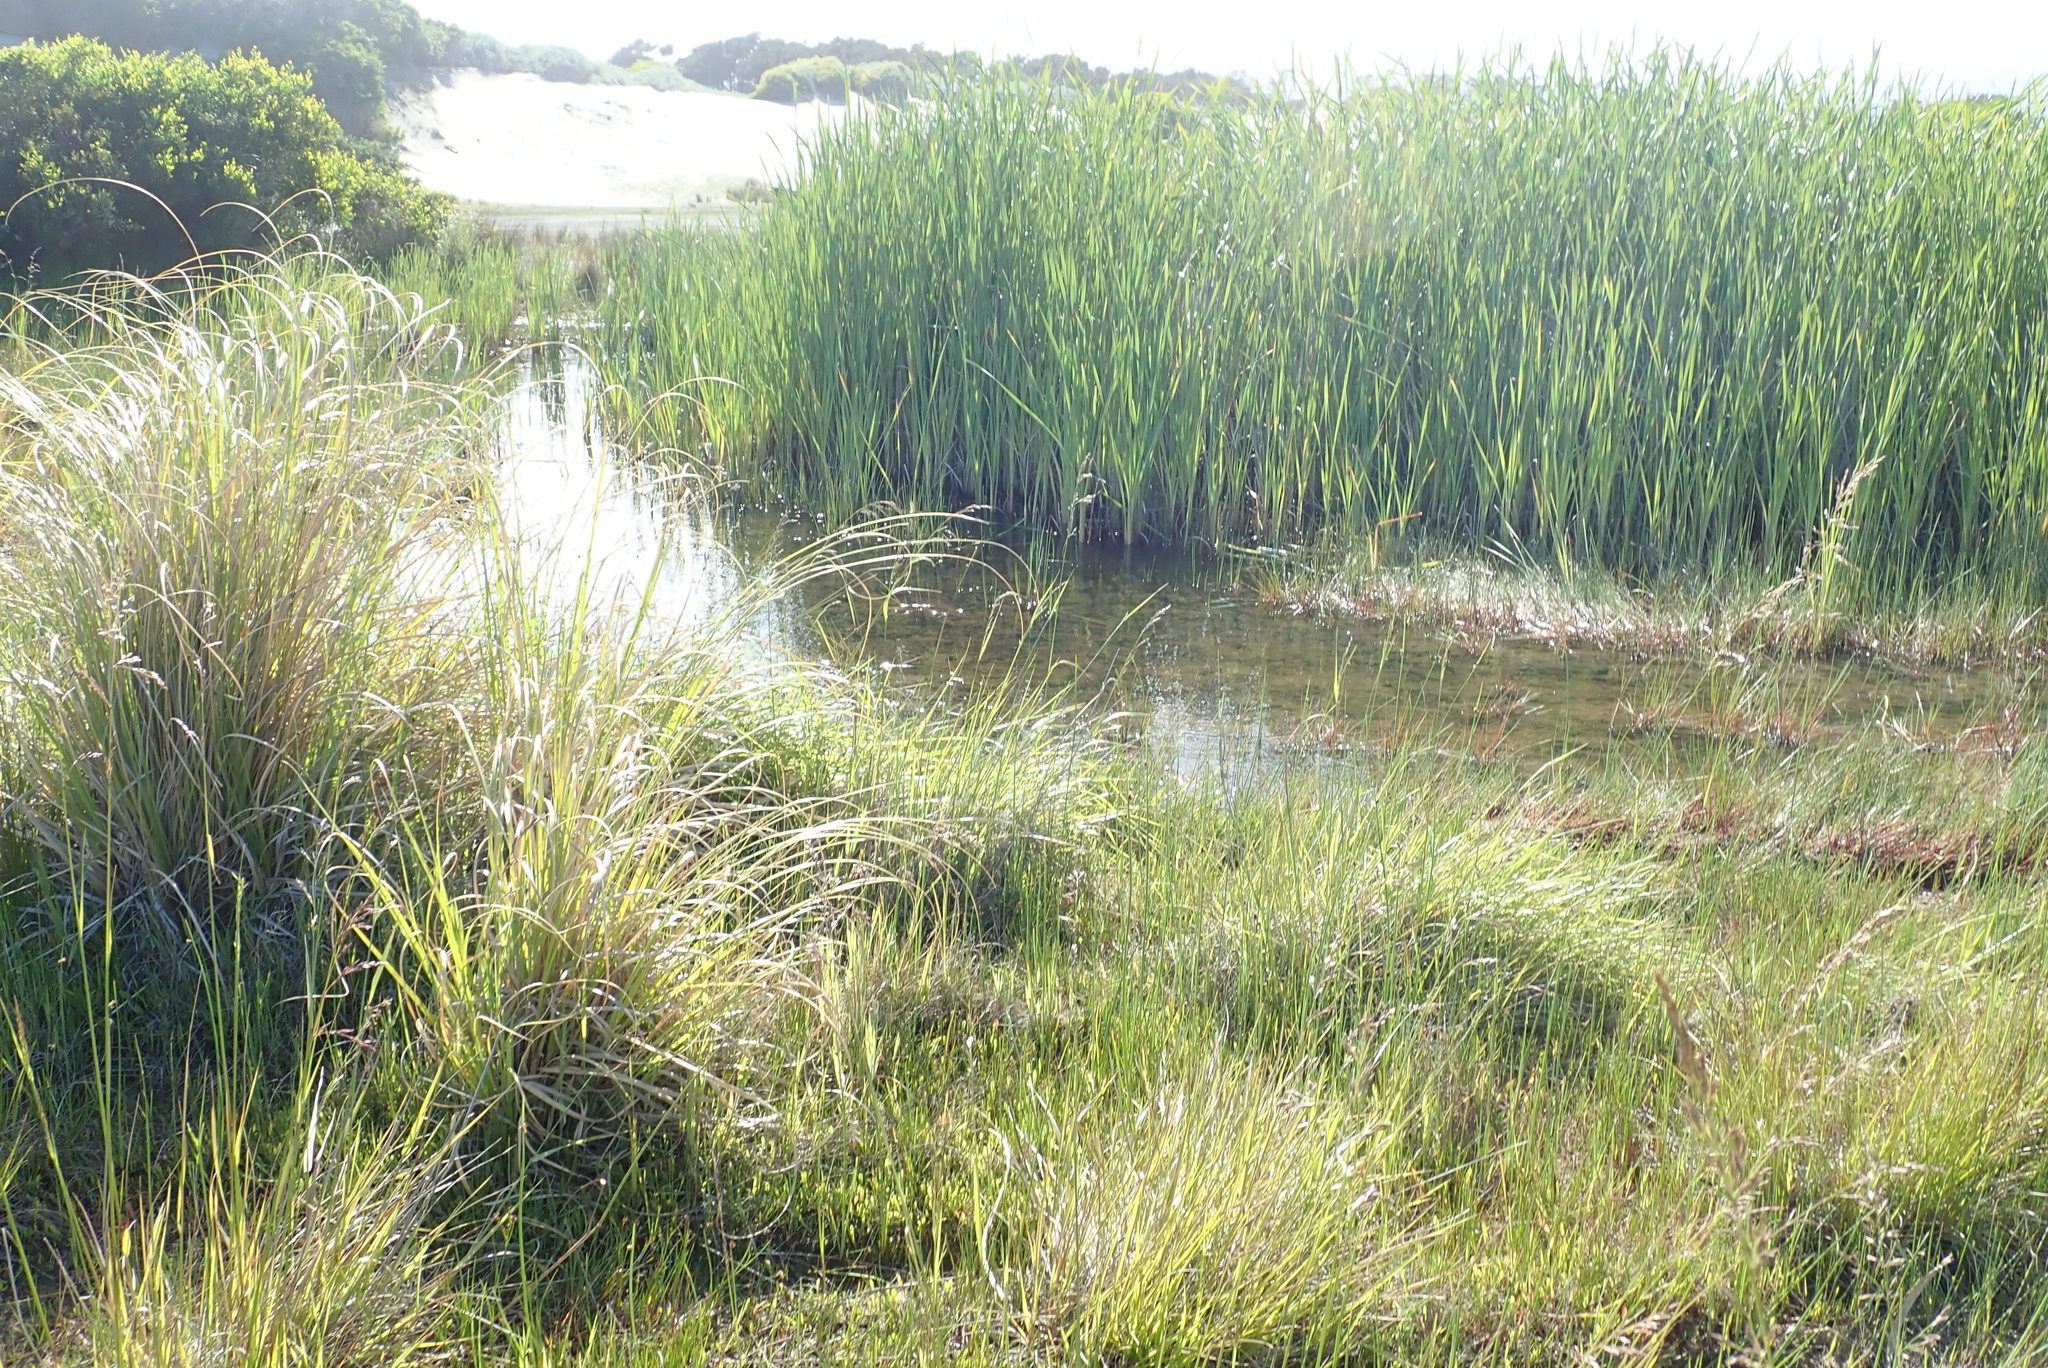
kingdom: Plantae
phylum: Tracheophyta
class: Liliopsida
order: Poales
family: Typhaceae
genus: Typha
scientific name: Typha orientalis
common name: Bullrush
